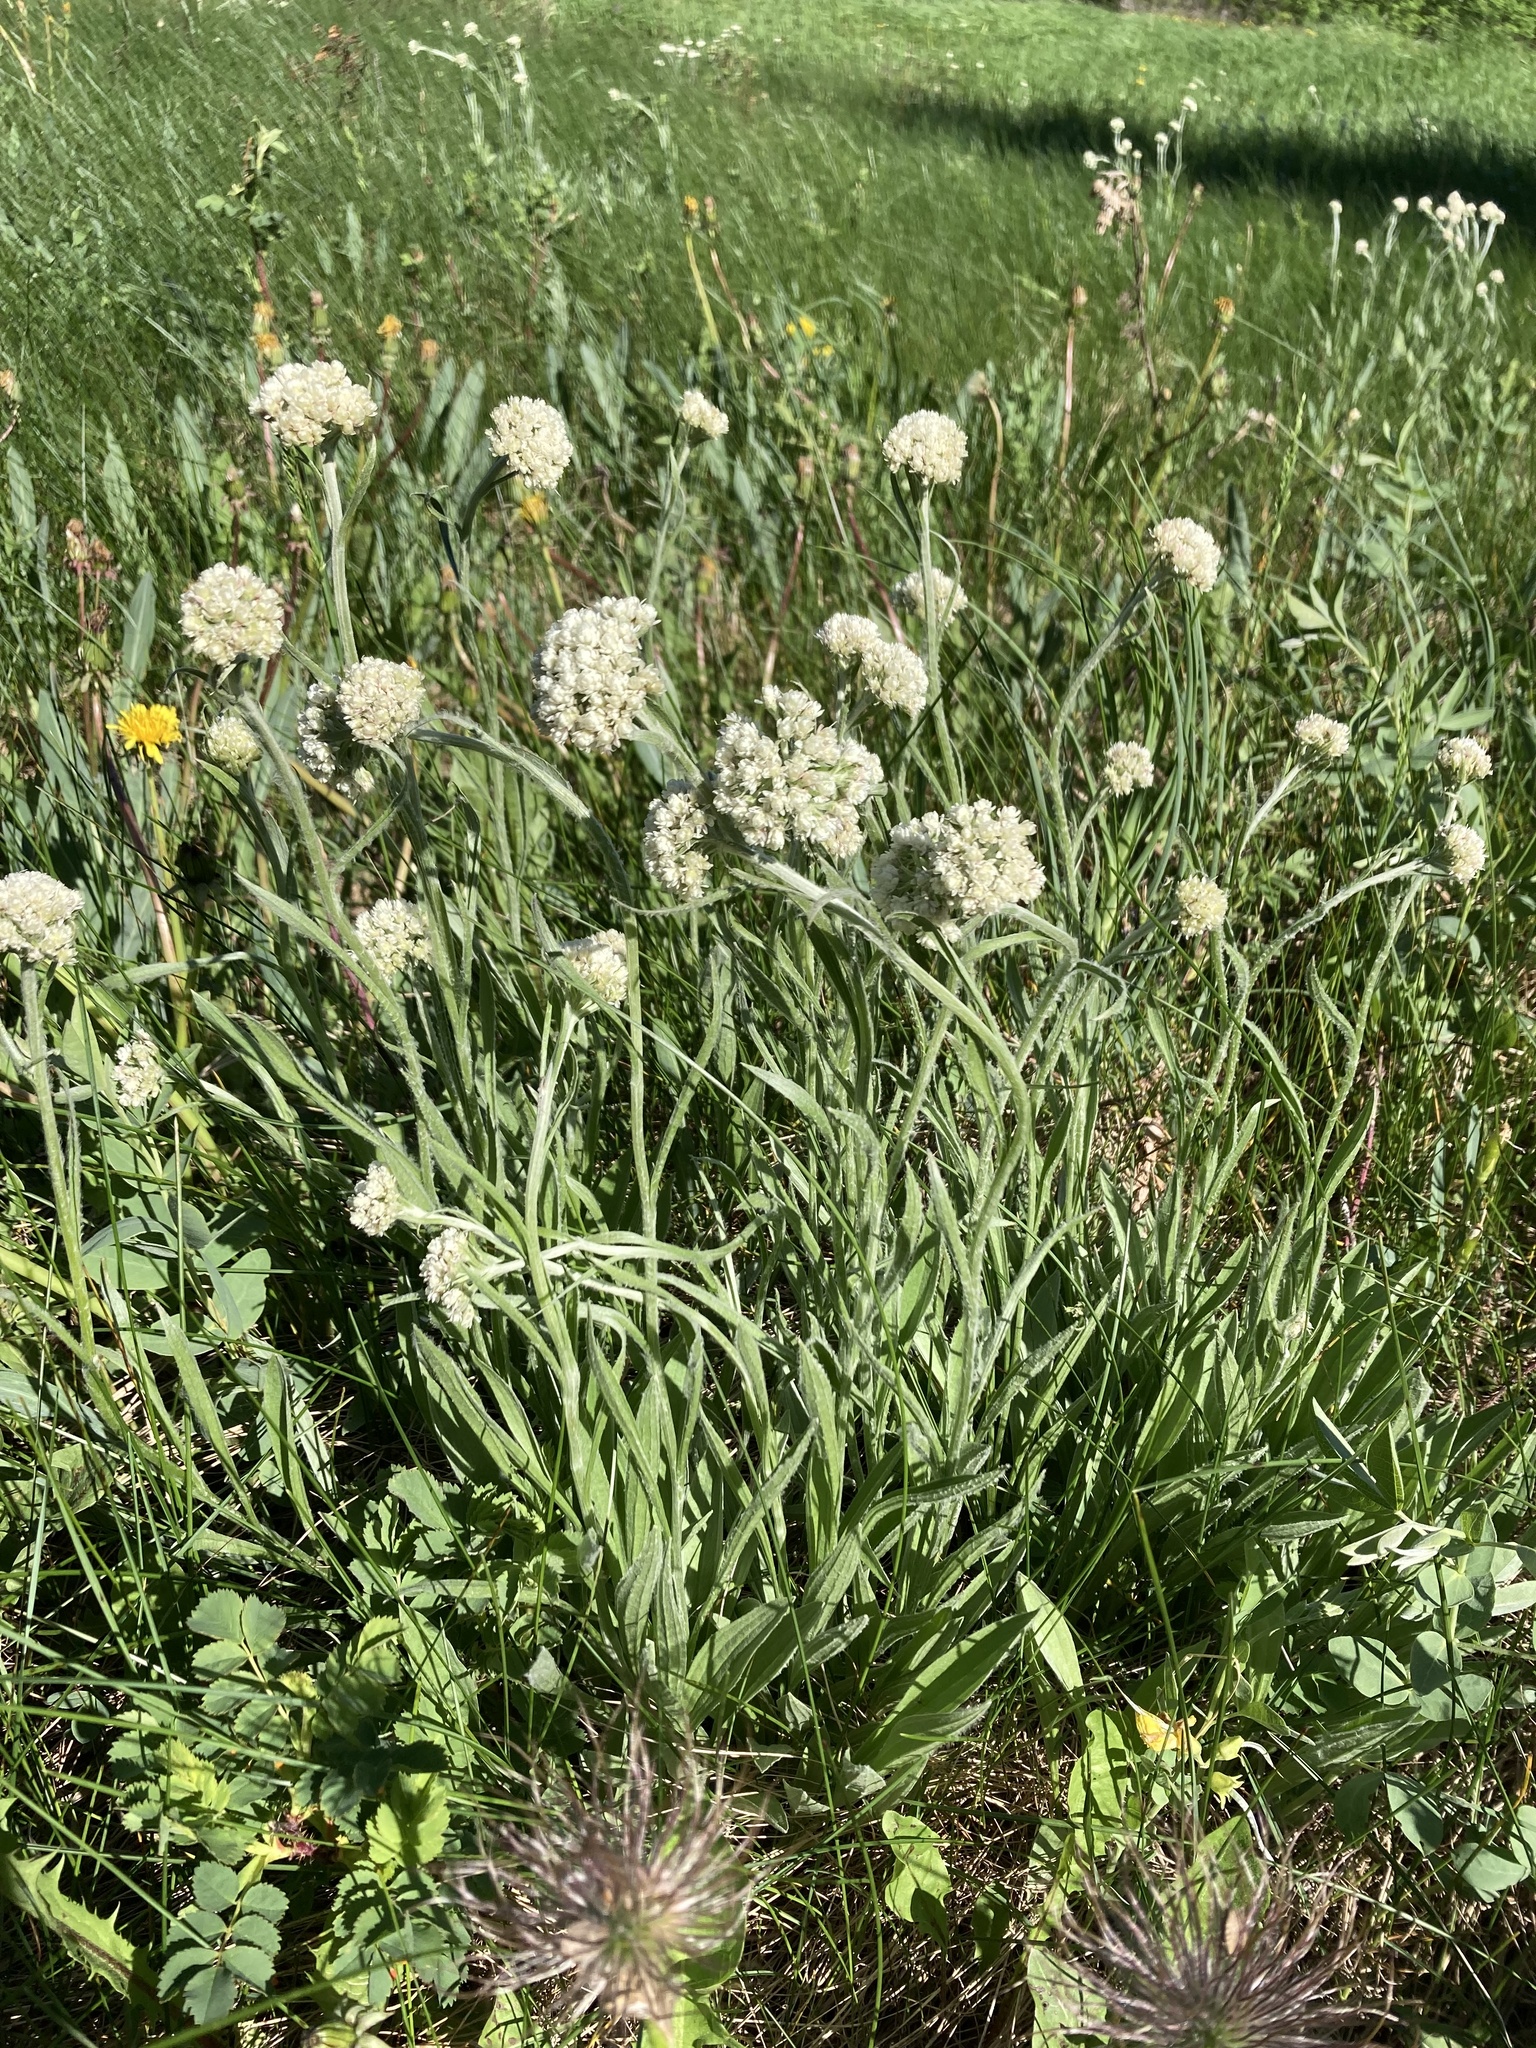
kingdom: Plantae
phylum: Tracheophyta
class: Magnoliopsida
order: Asterales
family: Asteraceae
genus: Antennaria
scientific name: Antennaria anaphaloides
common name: Tall pussytoes
